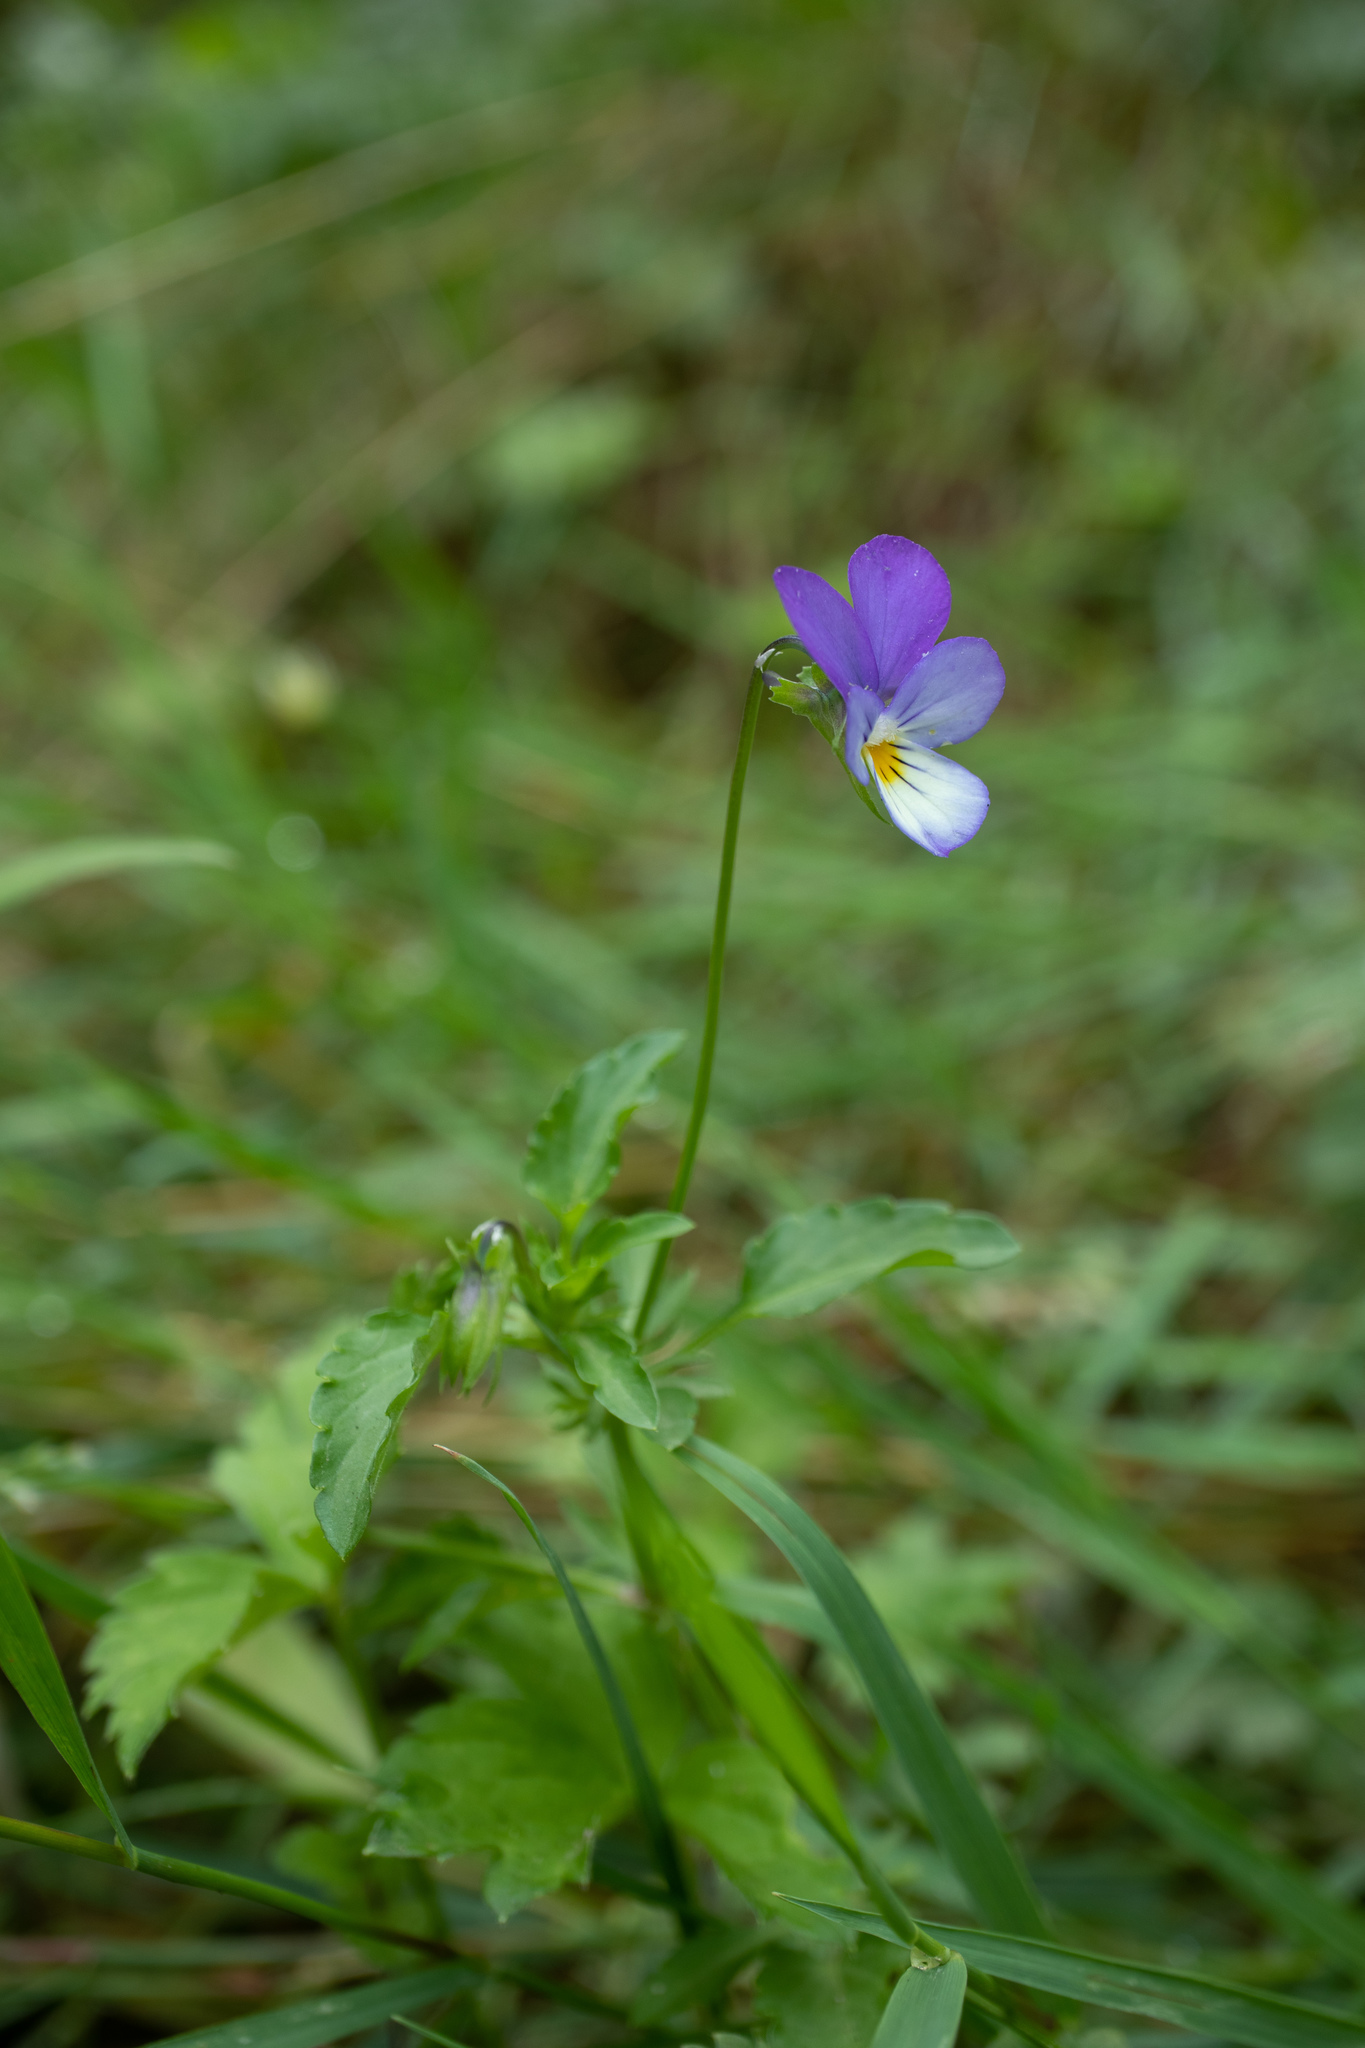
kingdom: Plantae
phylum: Tracheophyta
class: Magnoliopsida
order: Malpighiales
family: Violaceae
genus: Viola
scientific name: Viola tricolor
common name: Pansy
